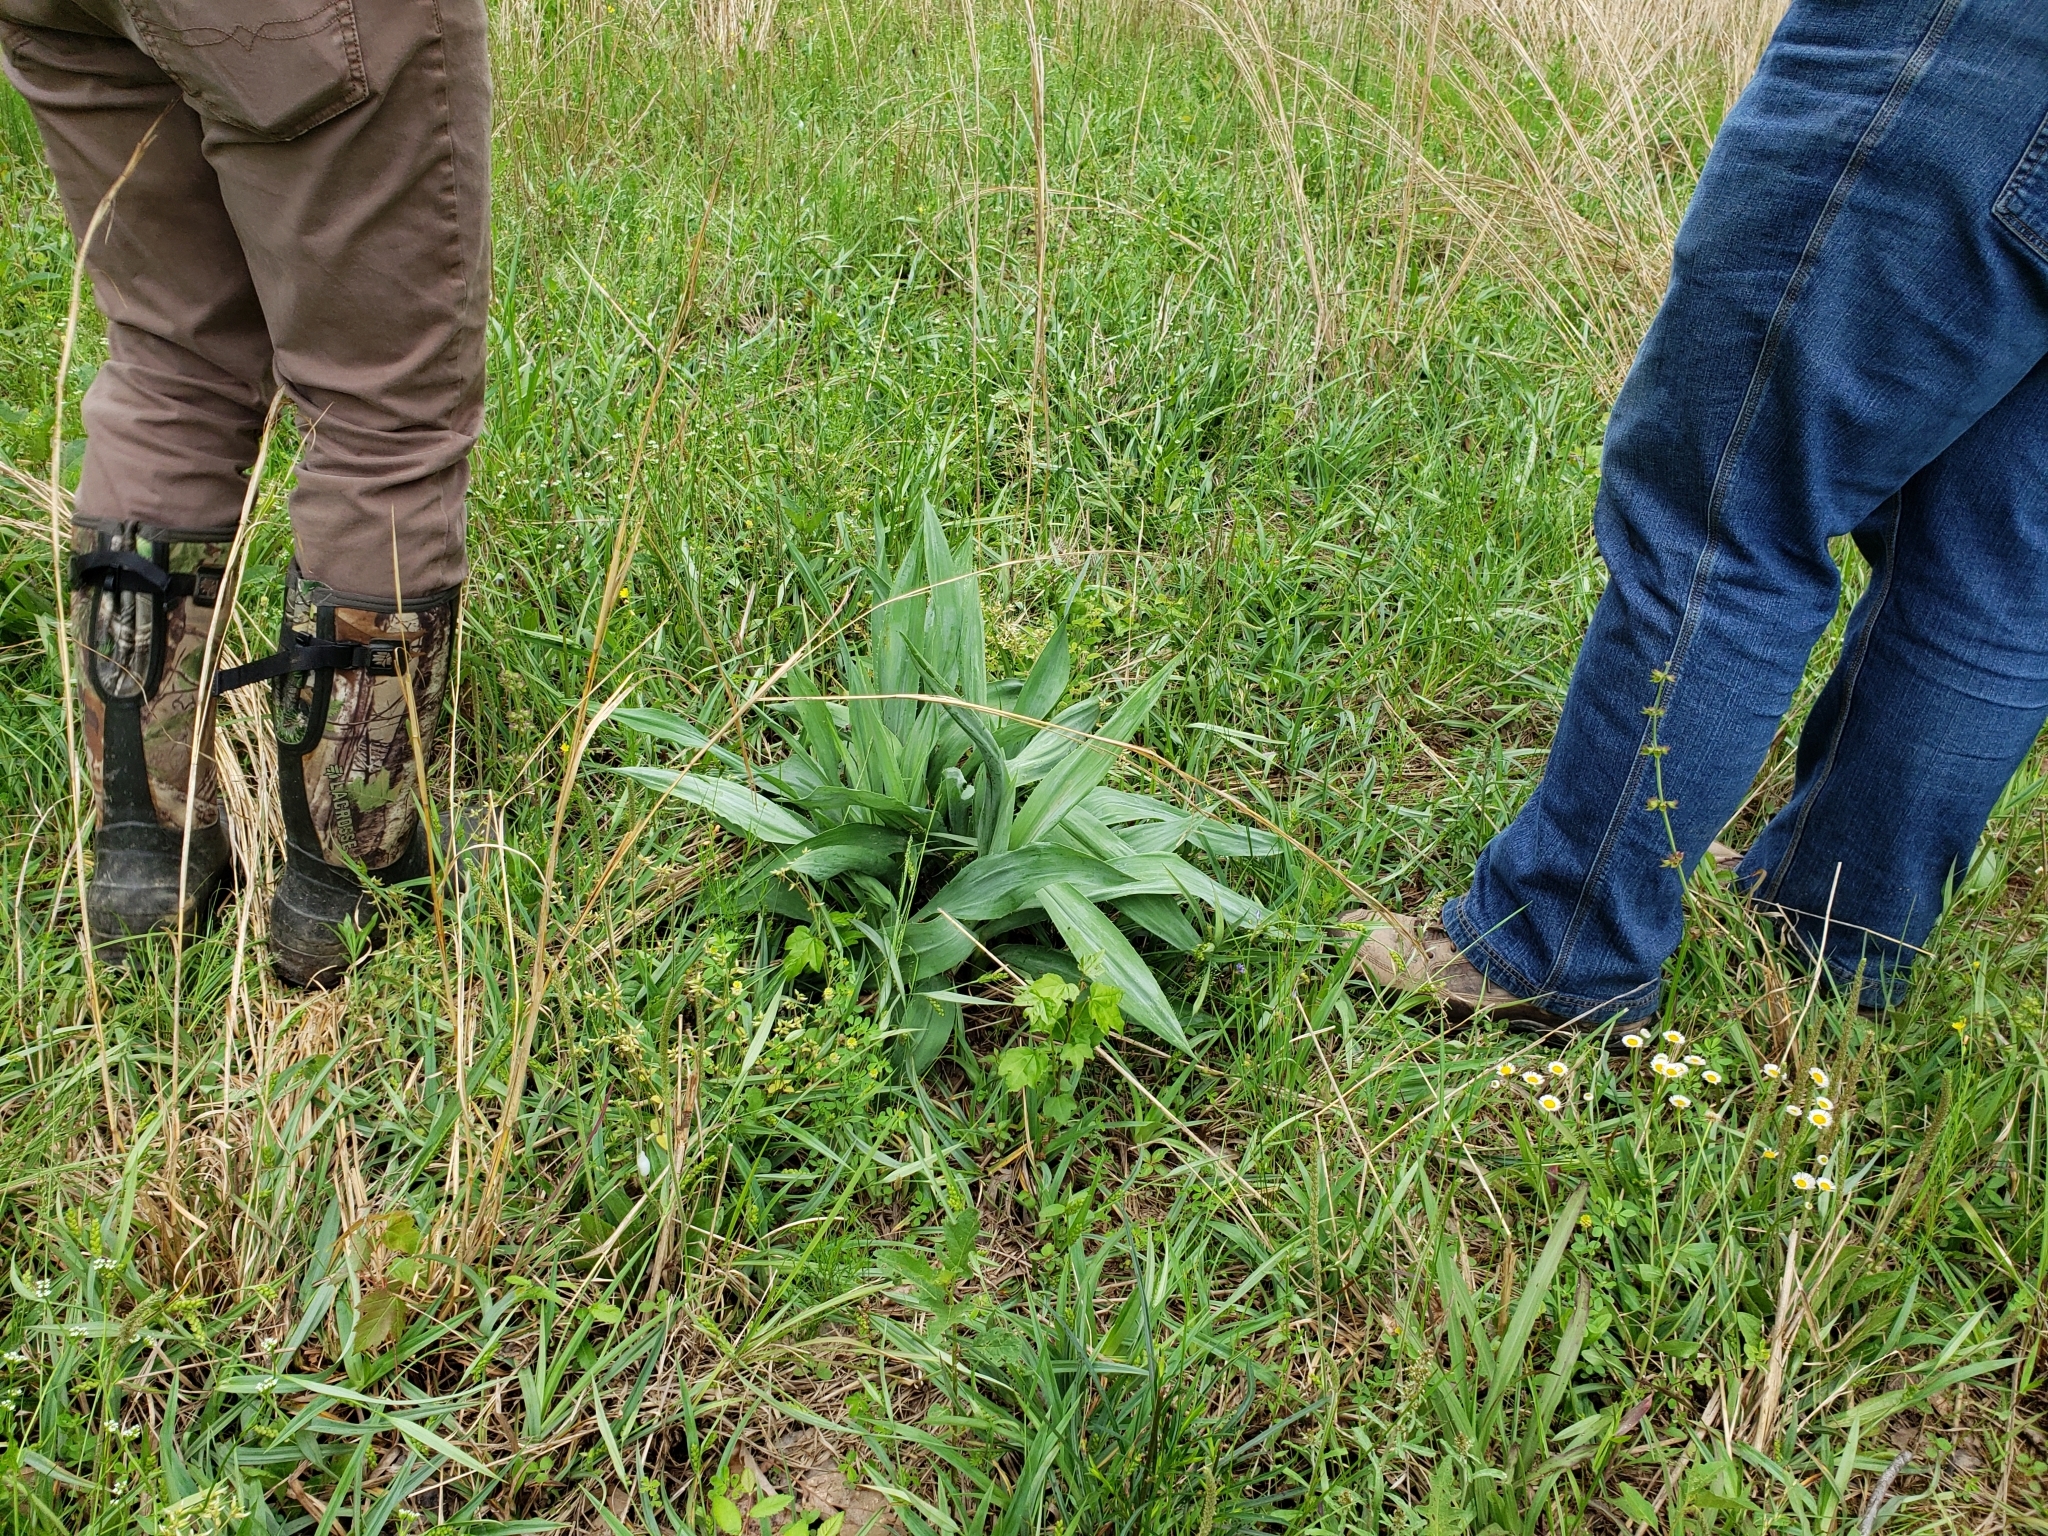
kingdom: Plantae
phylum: Tracheophyta
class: Magnoliopsida
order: Apiales
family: Apiaceae
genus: Eryngium
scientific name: Eryngium yuccifolium
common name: Button eryngo
